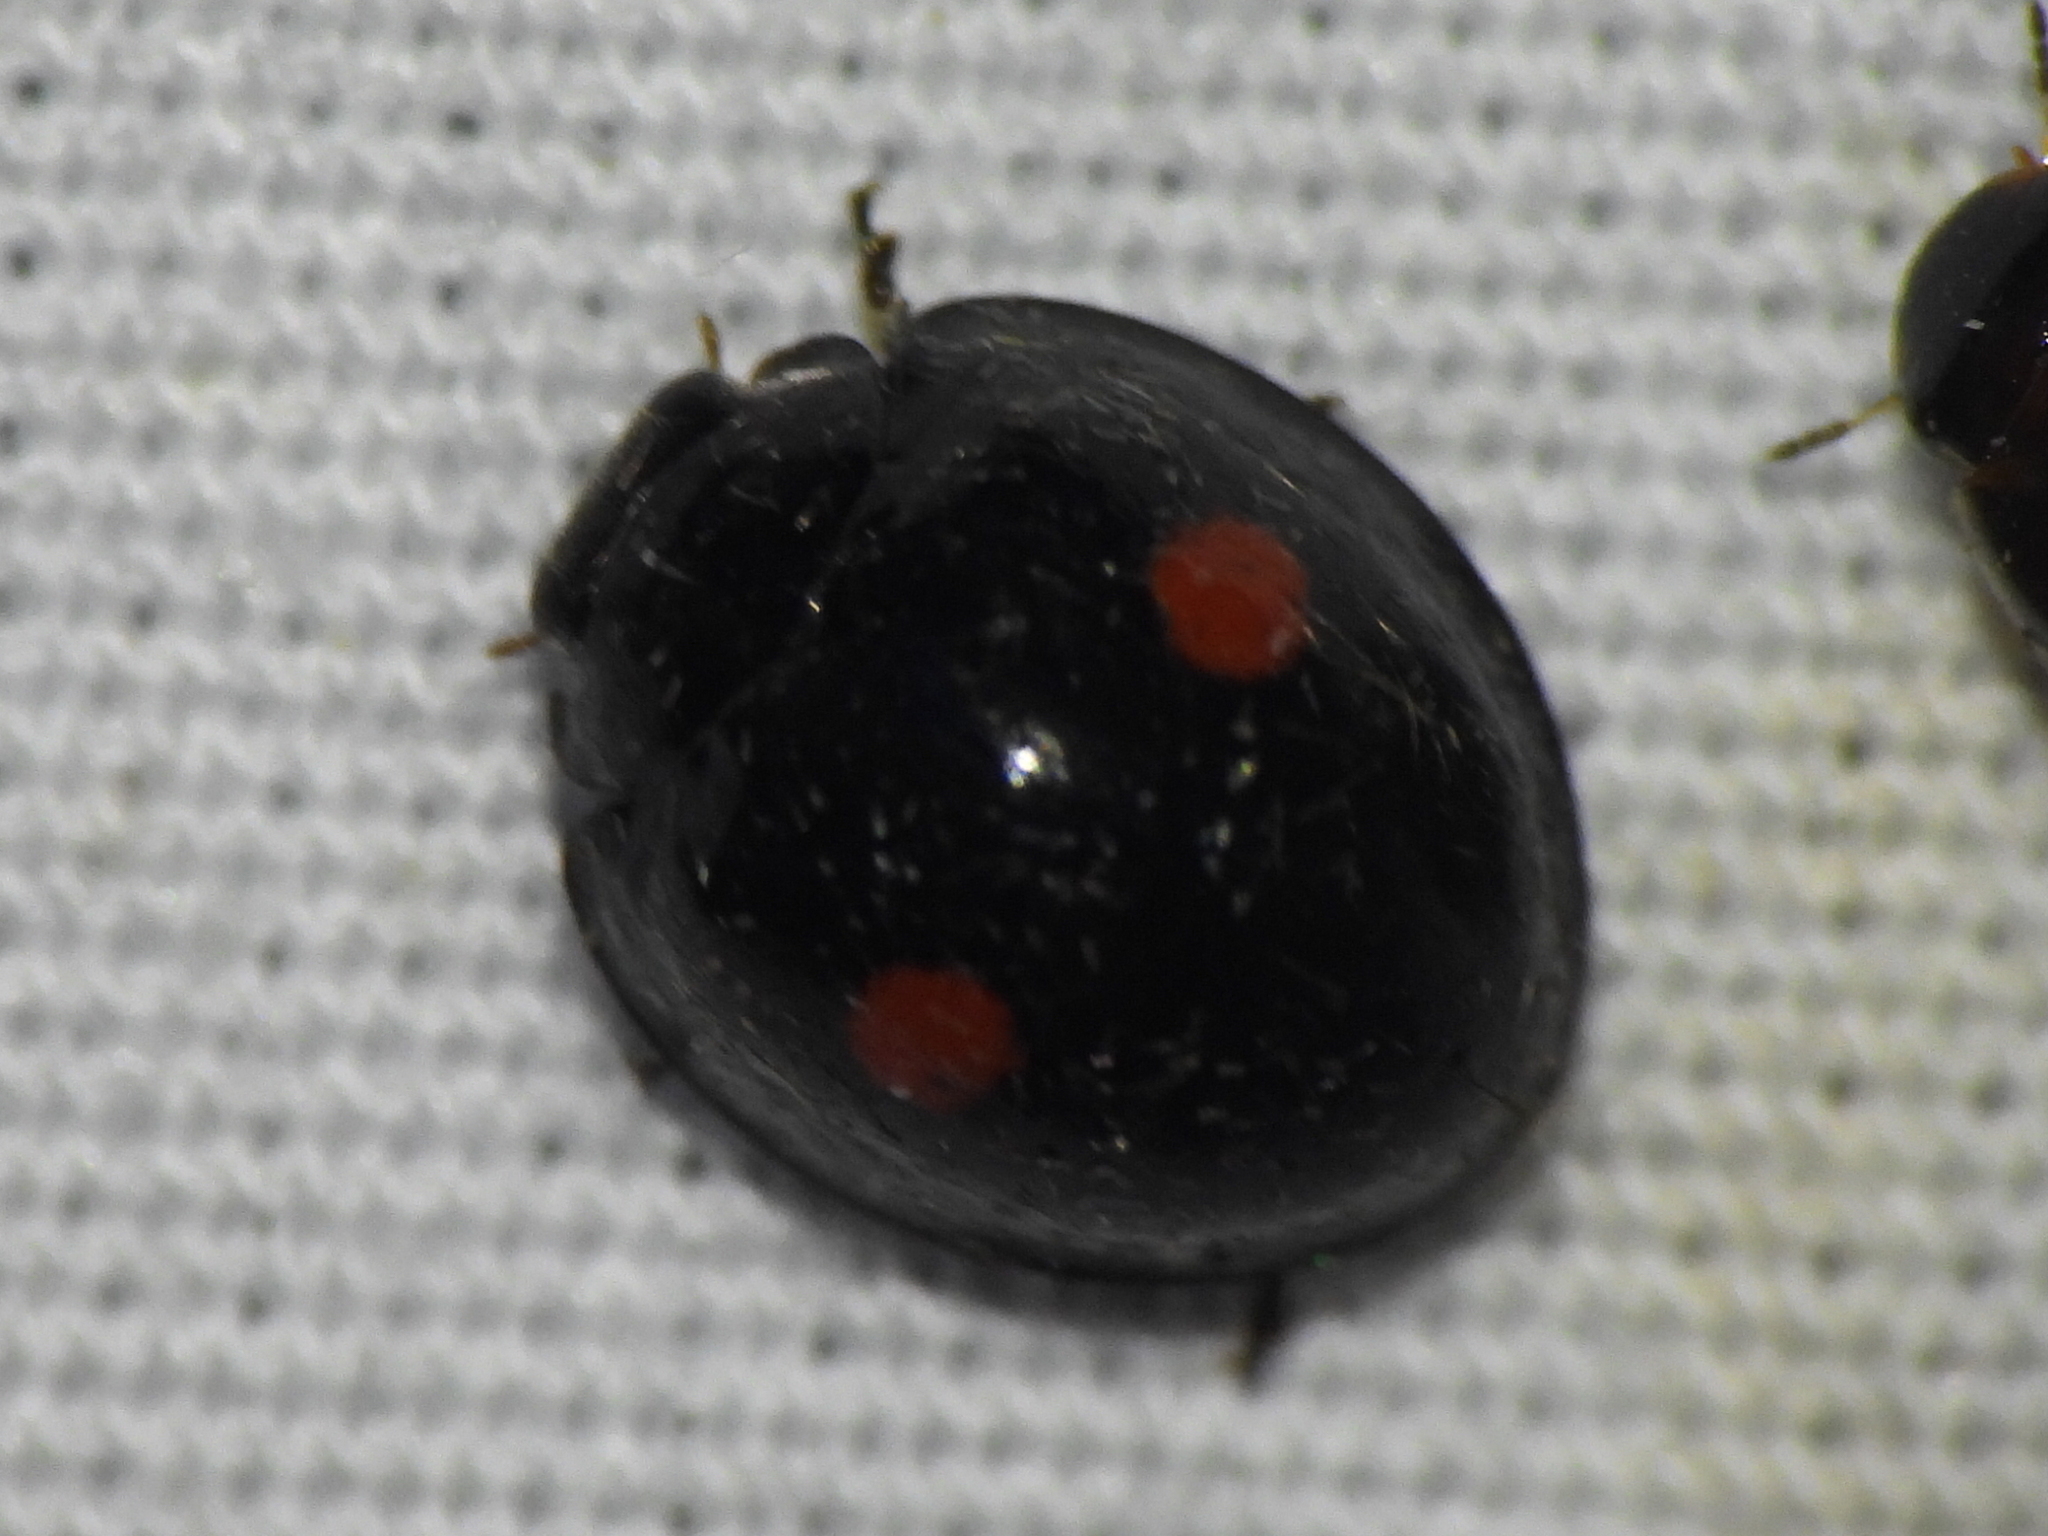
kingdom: Animalia
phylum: Arthropoda
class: Insecta
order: Coleoptera
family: Coccinellidae
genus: Chilocorus
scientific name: Chilocorus stigma
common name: Twicestabbed lady beetle
